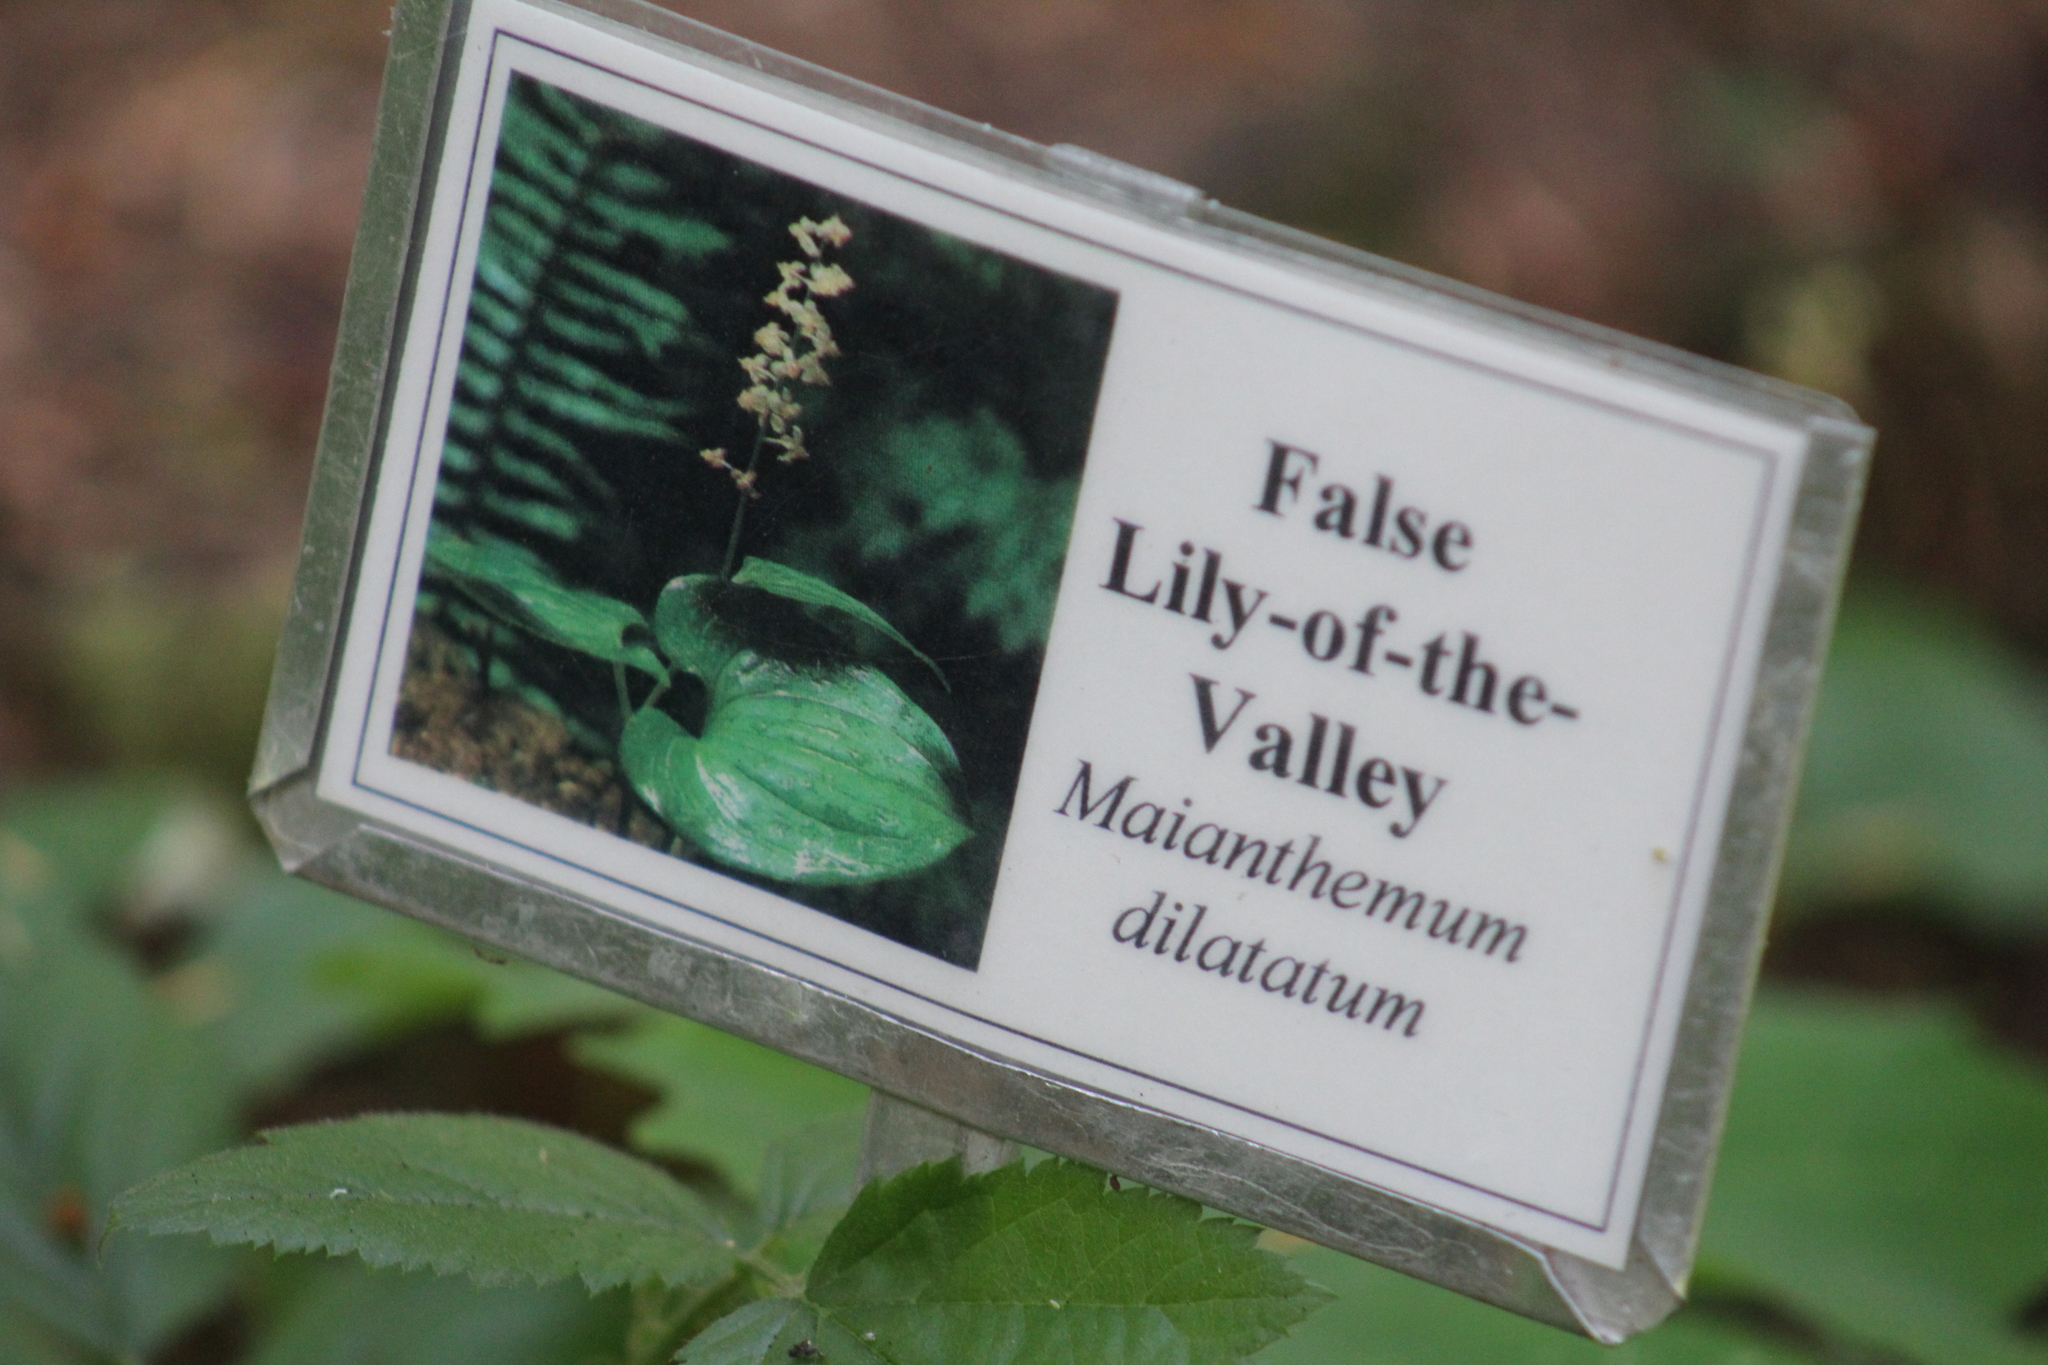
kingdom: Plantae
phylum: Tracheophyta
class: Liliopsida
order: Asparagales
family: Asparagaceae
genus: Maianthemum
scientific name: Maianthemum dilatatum
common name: False lily-of-the-valley
